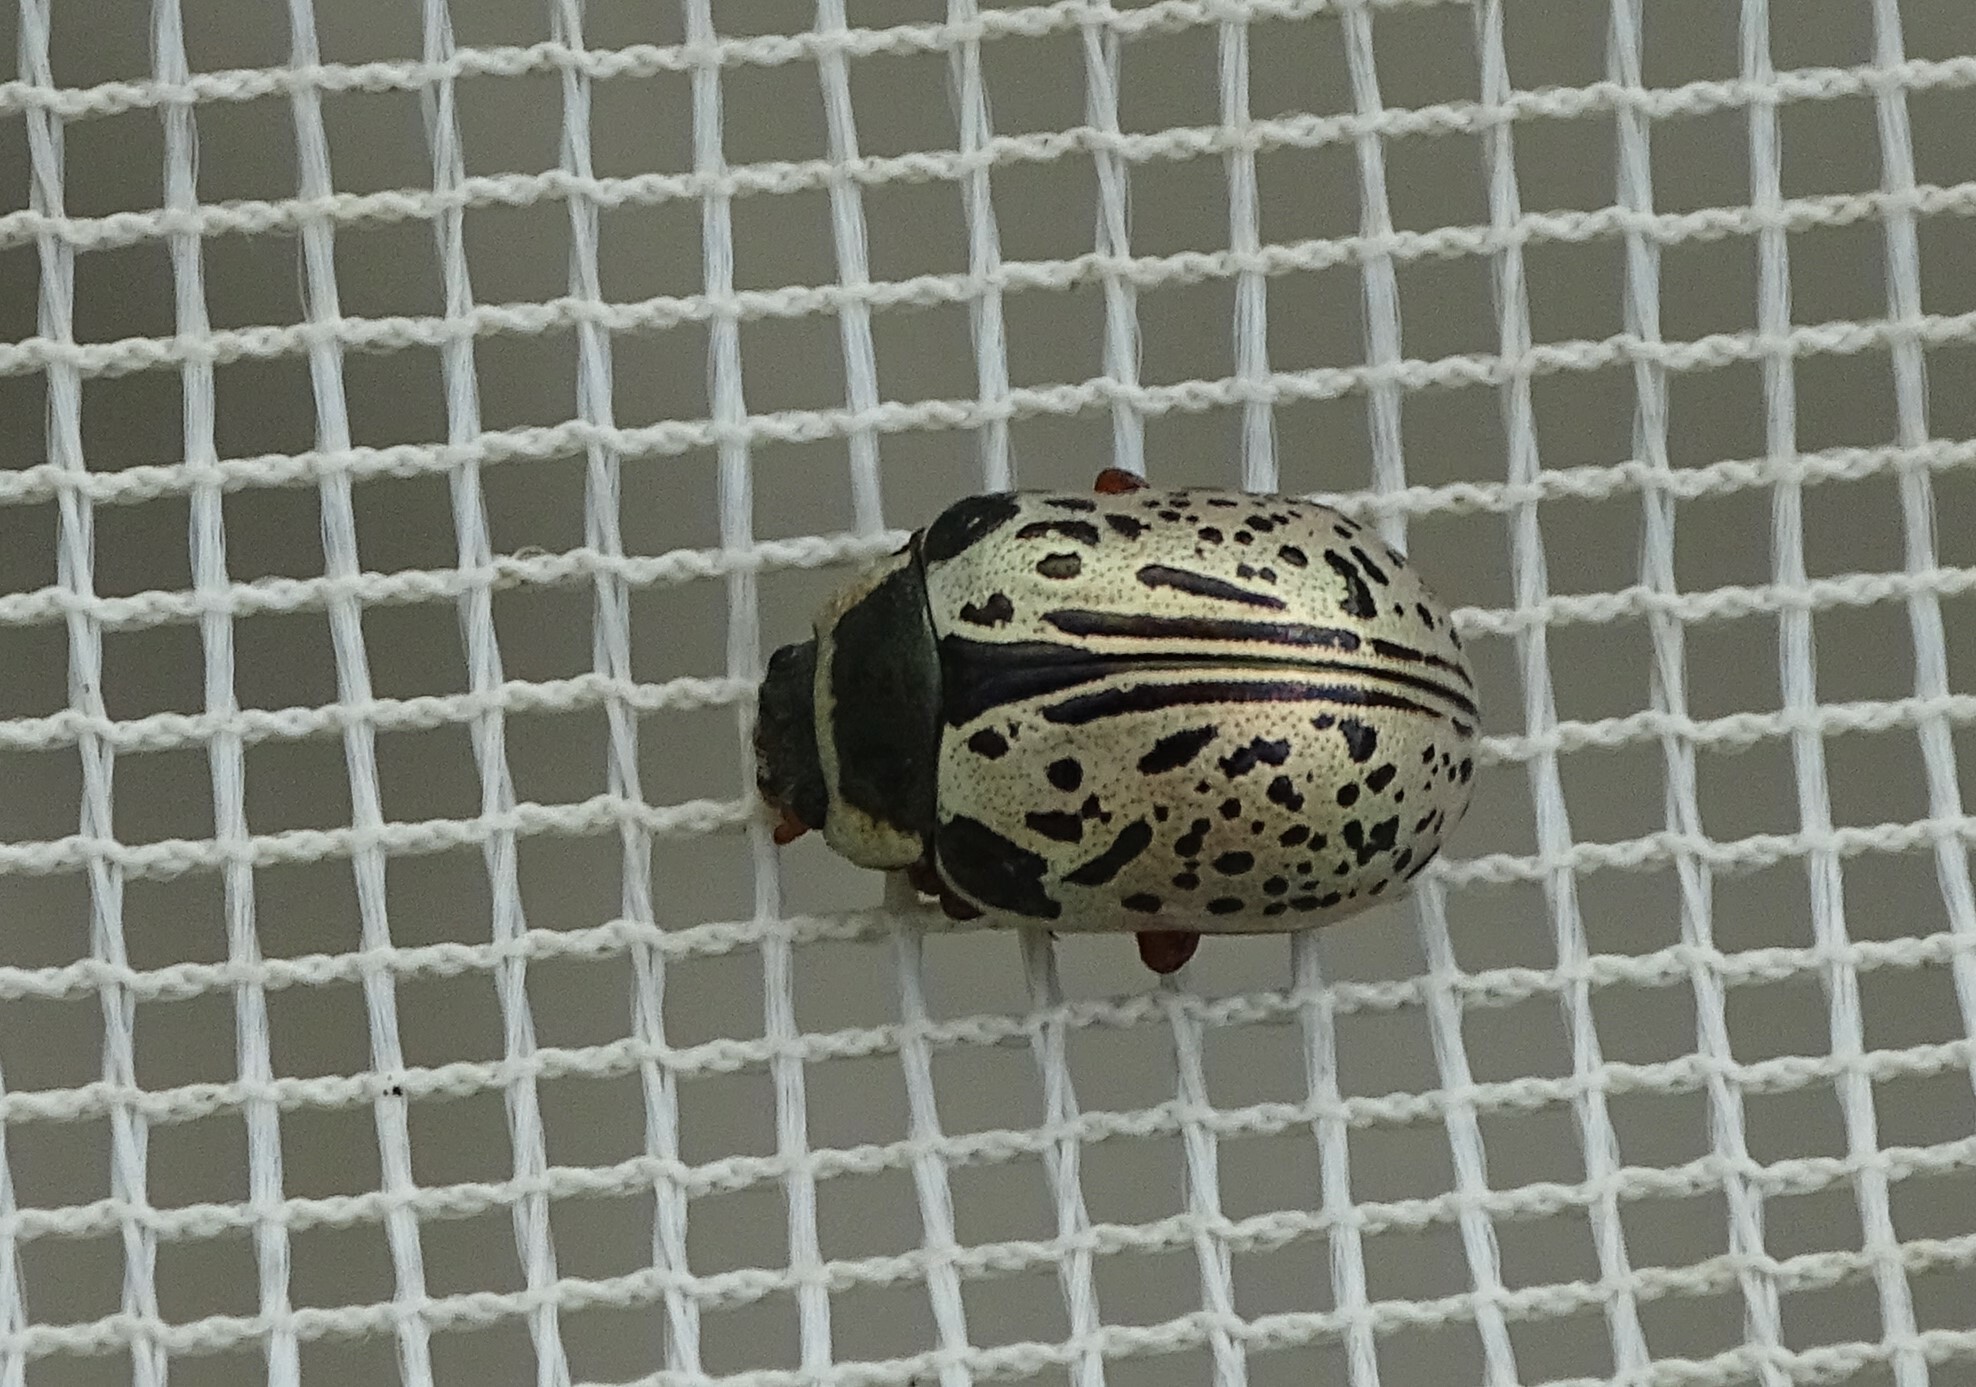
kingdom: Animalia
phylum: Arthropoda
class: Insecta
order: Coleoptera
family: Chrysomelidae
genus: Calligrapha
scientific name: Calligrapha multipunctata
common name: Common willow calligrapher beetle
